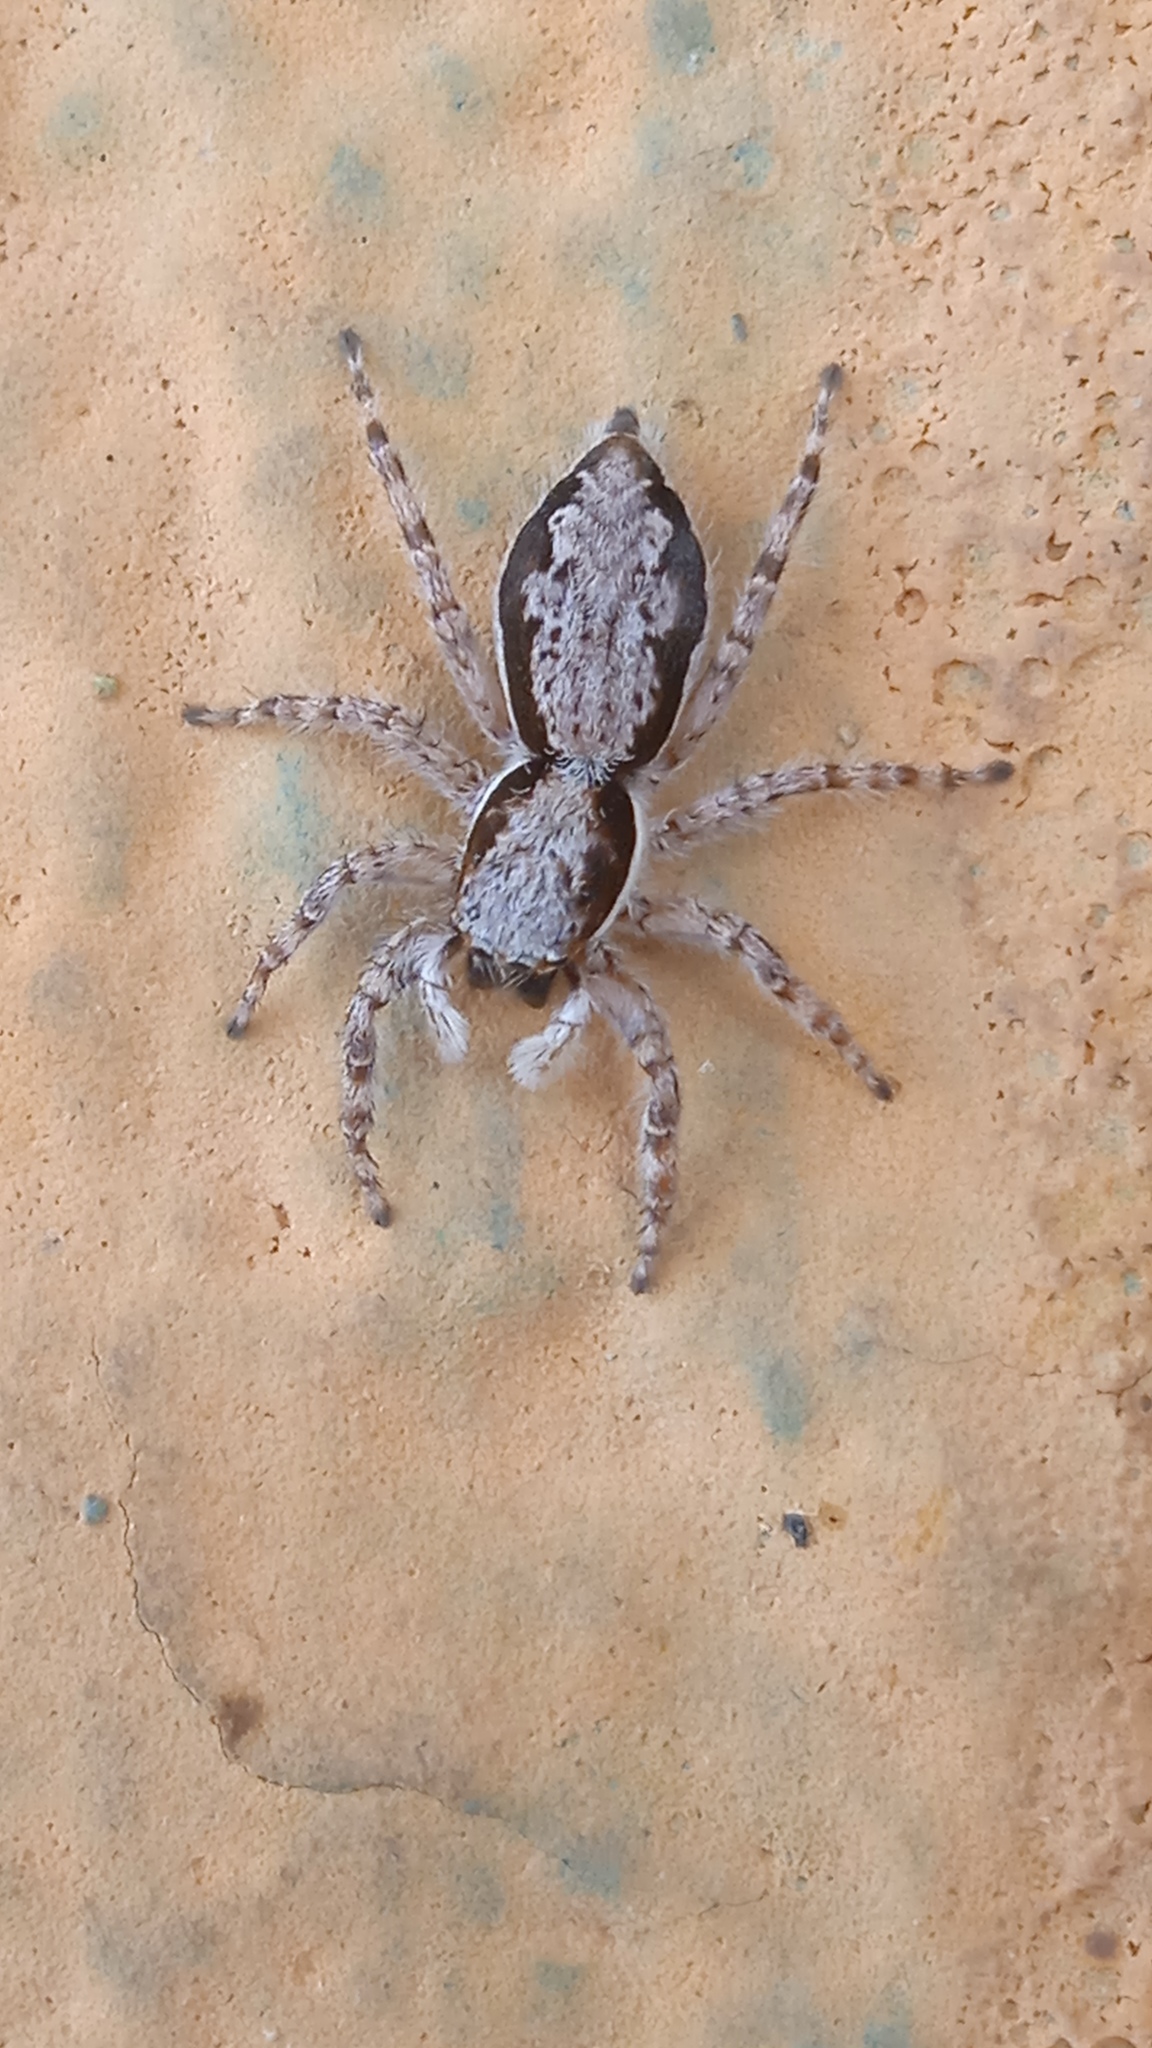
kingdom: Animalia
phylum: Arthropoda
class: Arachnida
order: Araneae
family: Salticidae
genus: Menemerus
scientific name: Menemerus bivittatus
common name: Gray wall jumper
